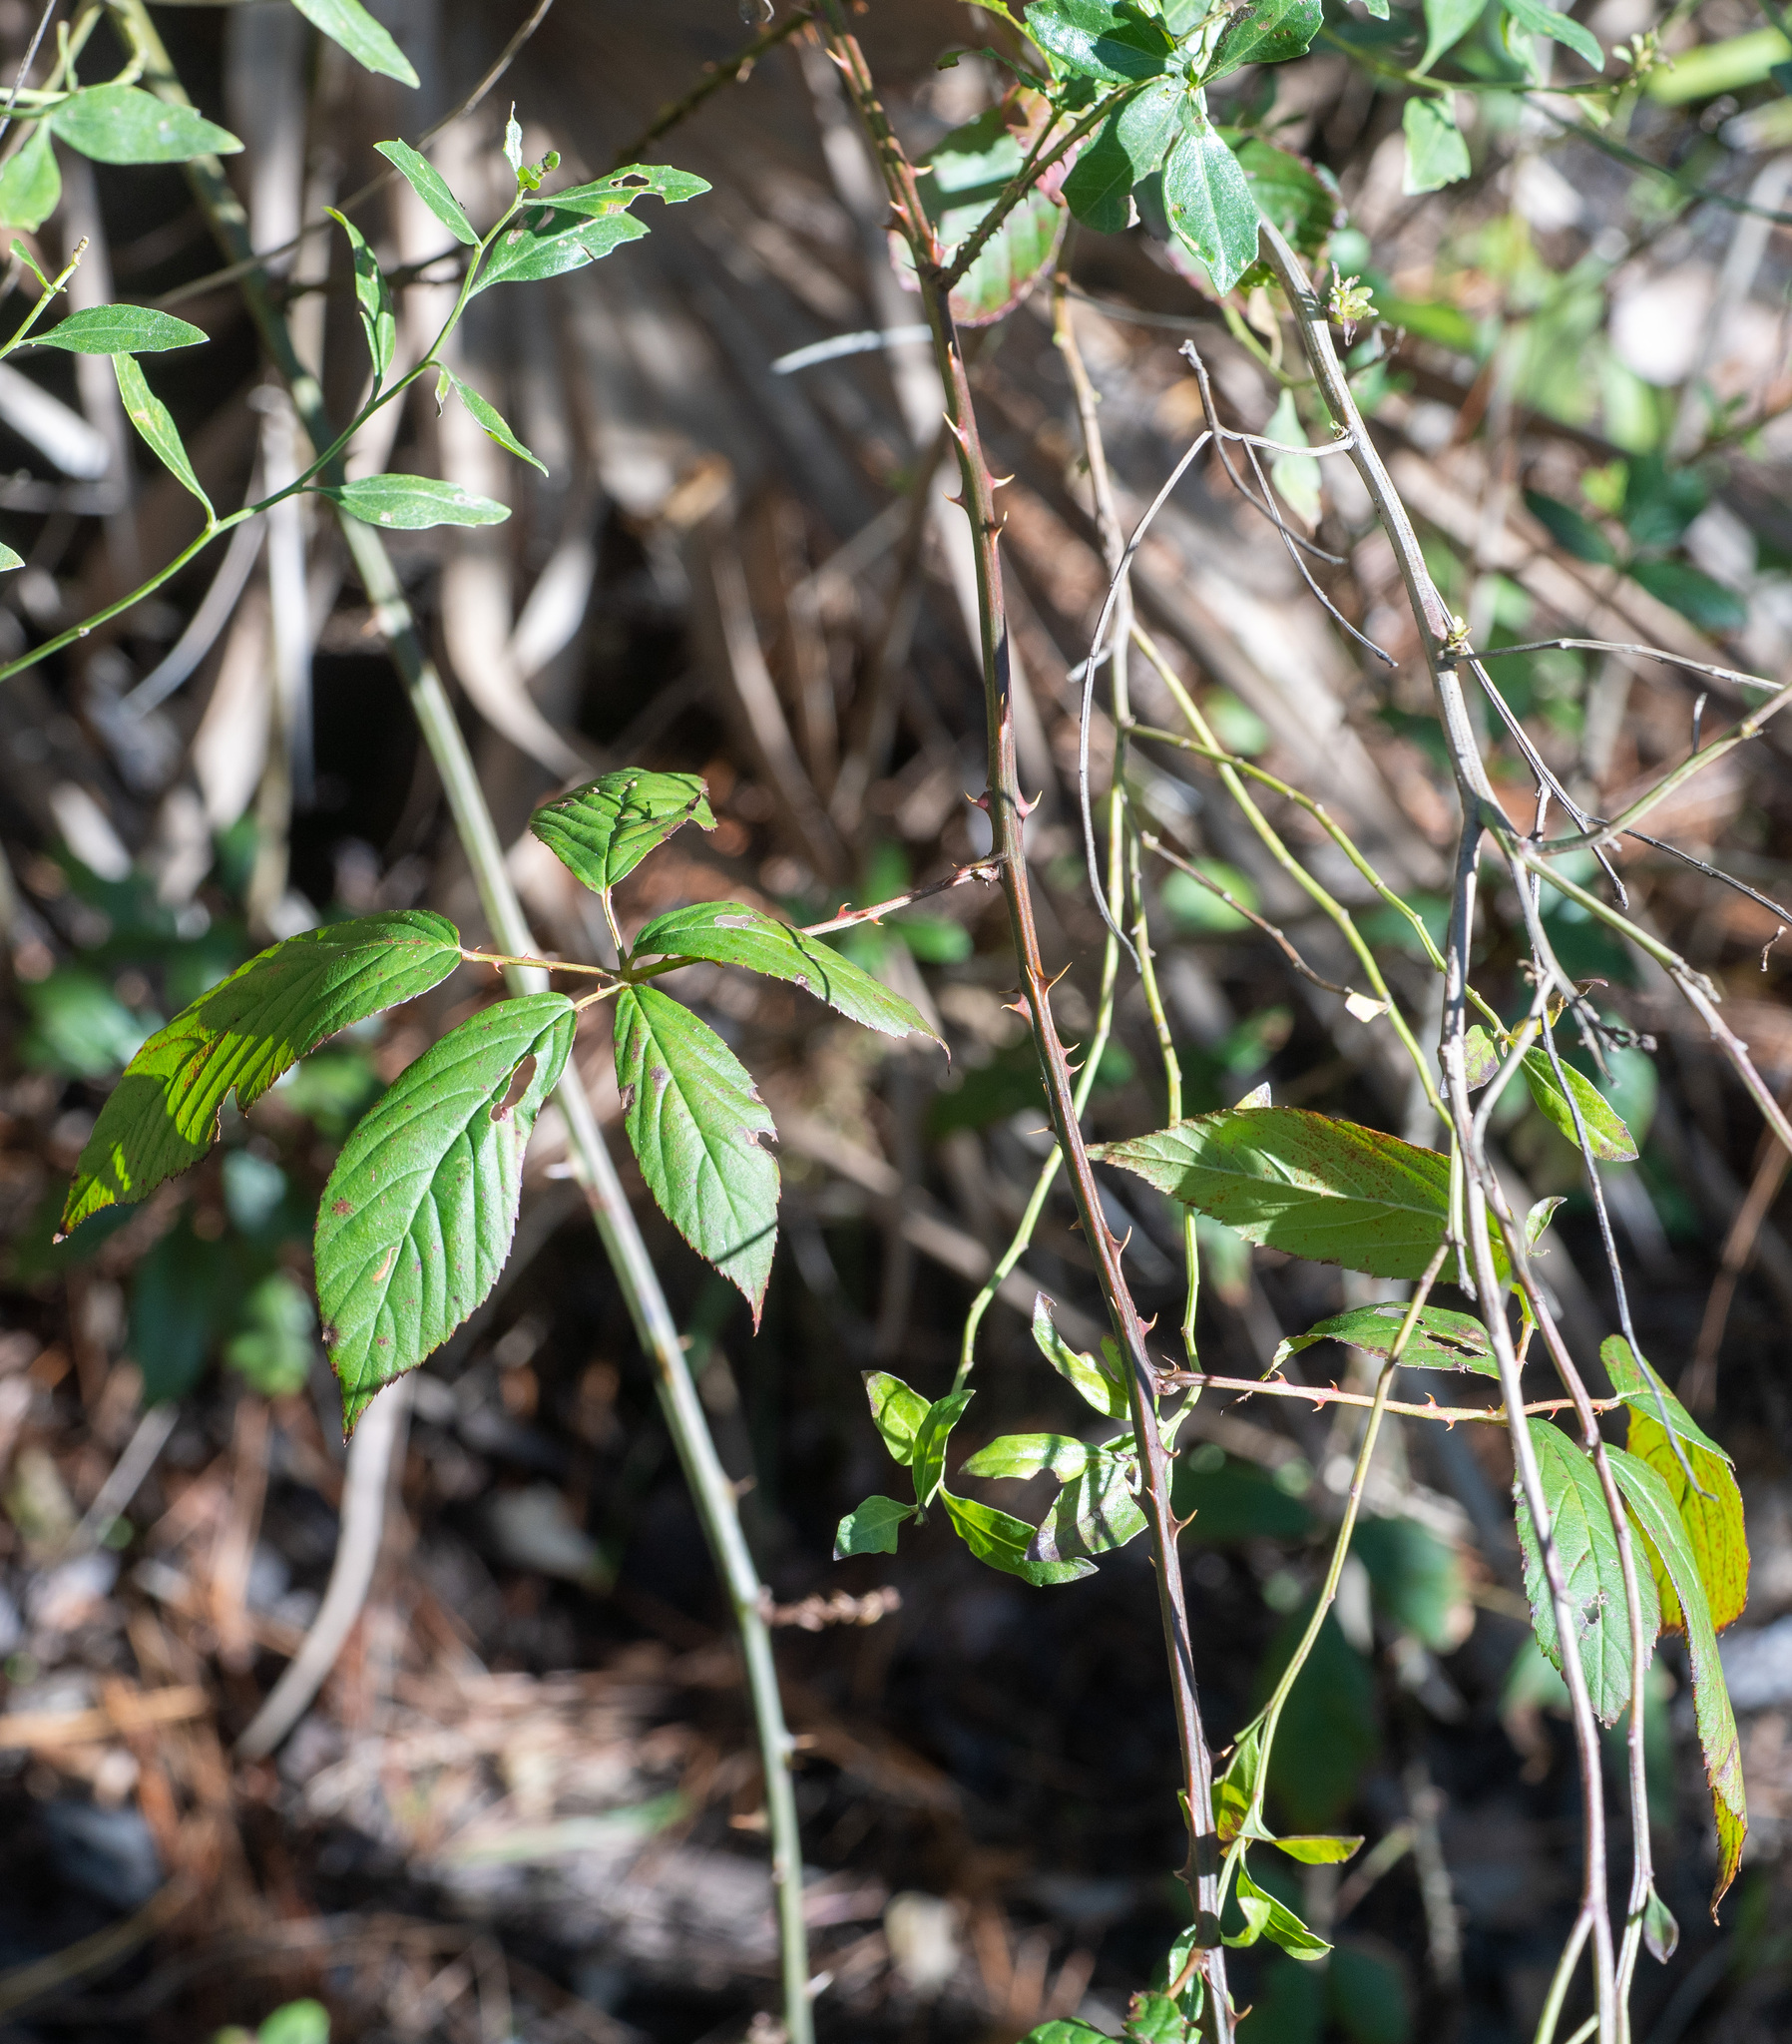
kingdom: Plantae
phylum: Tracheophyta
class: Magnoliopsida
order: Rosales
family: Rosaceae
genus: Rubus
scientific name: Rubus pensilvanicus
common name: Pennsylvania blackberry
